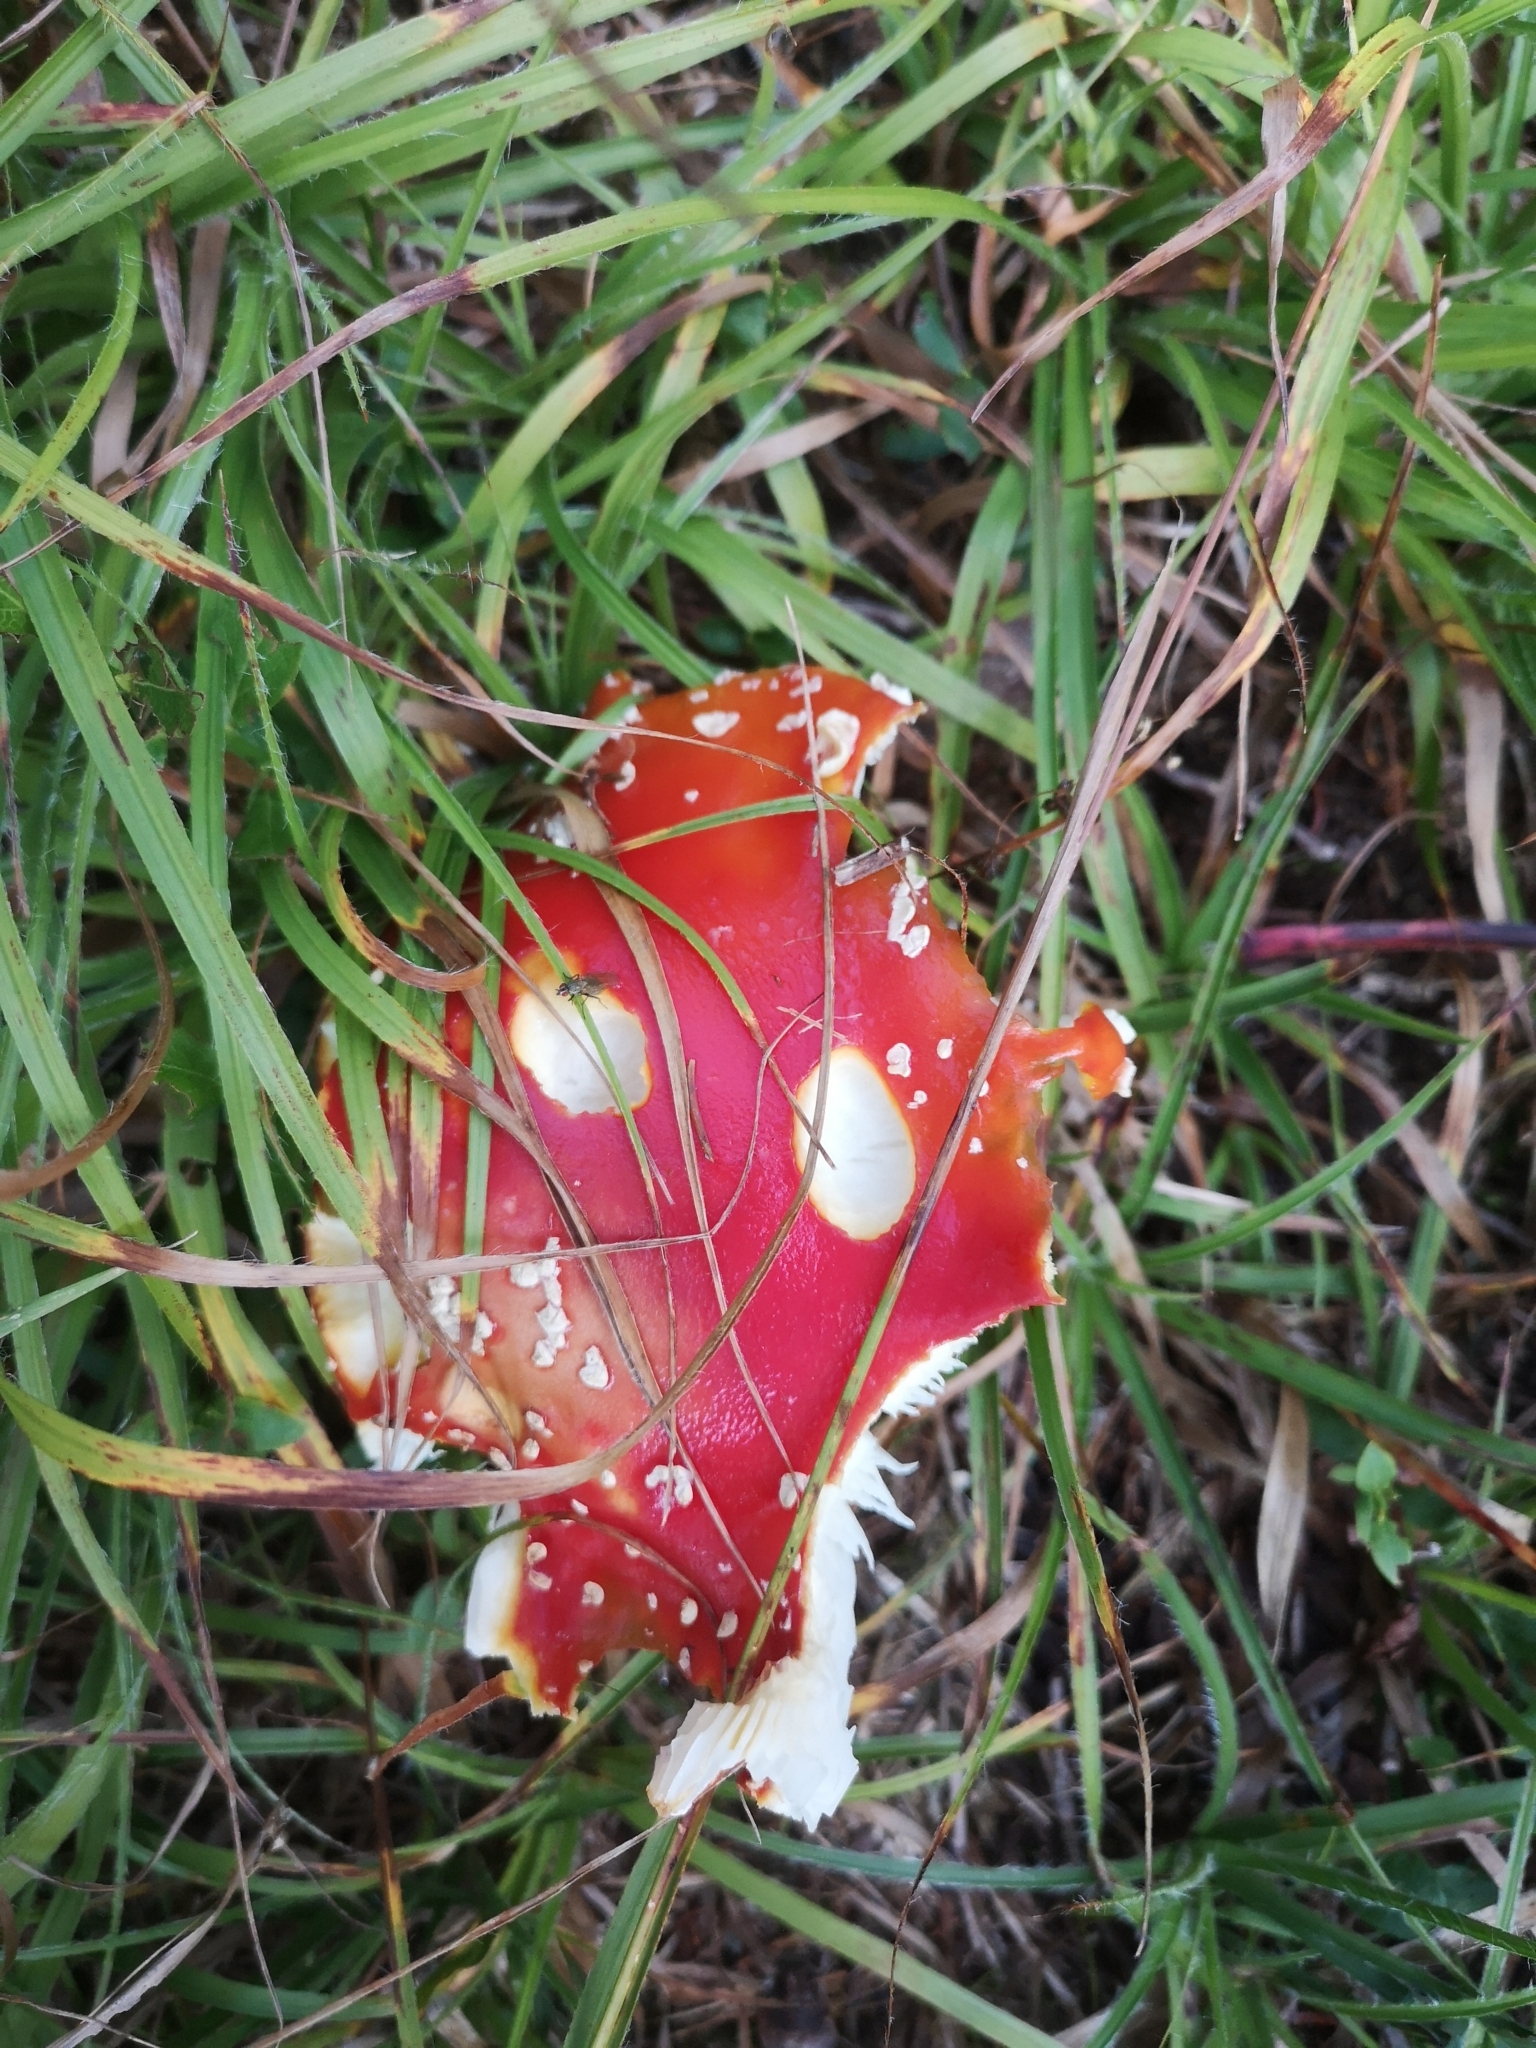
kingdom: Fungi
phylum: Basidiomycota
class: Agaricomycetes
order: Agaricales
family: Amanitaceae
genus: Amanita
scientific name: Amanita muscaria
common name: Fly agaric
